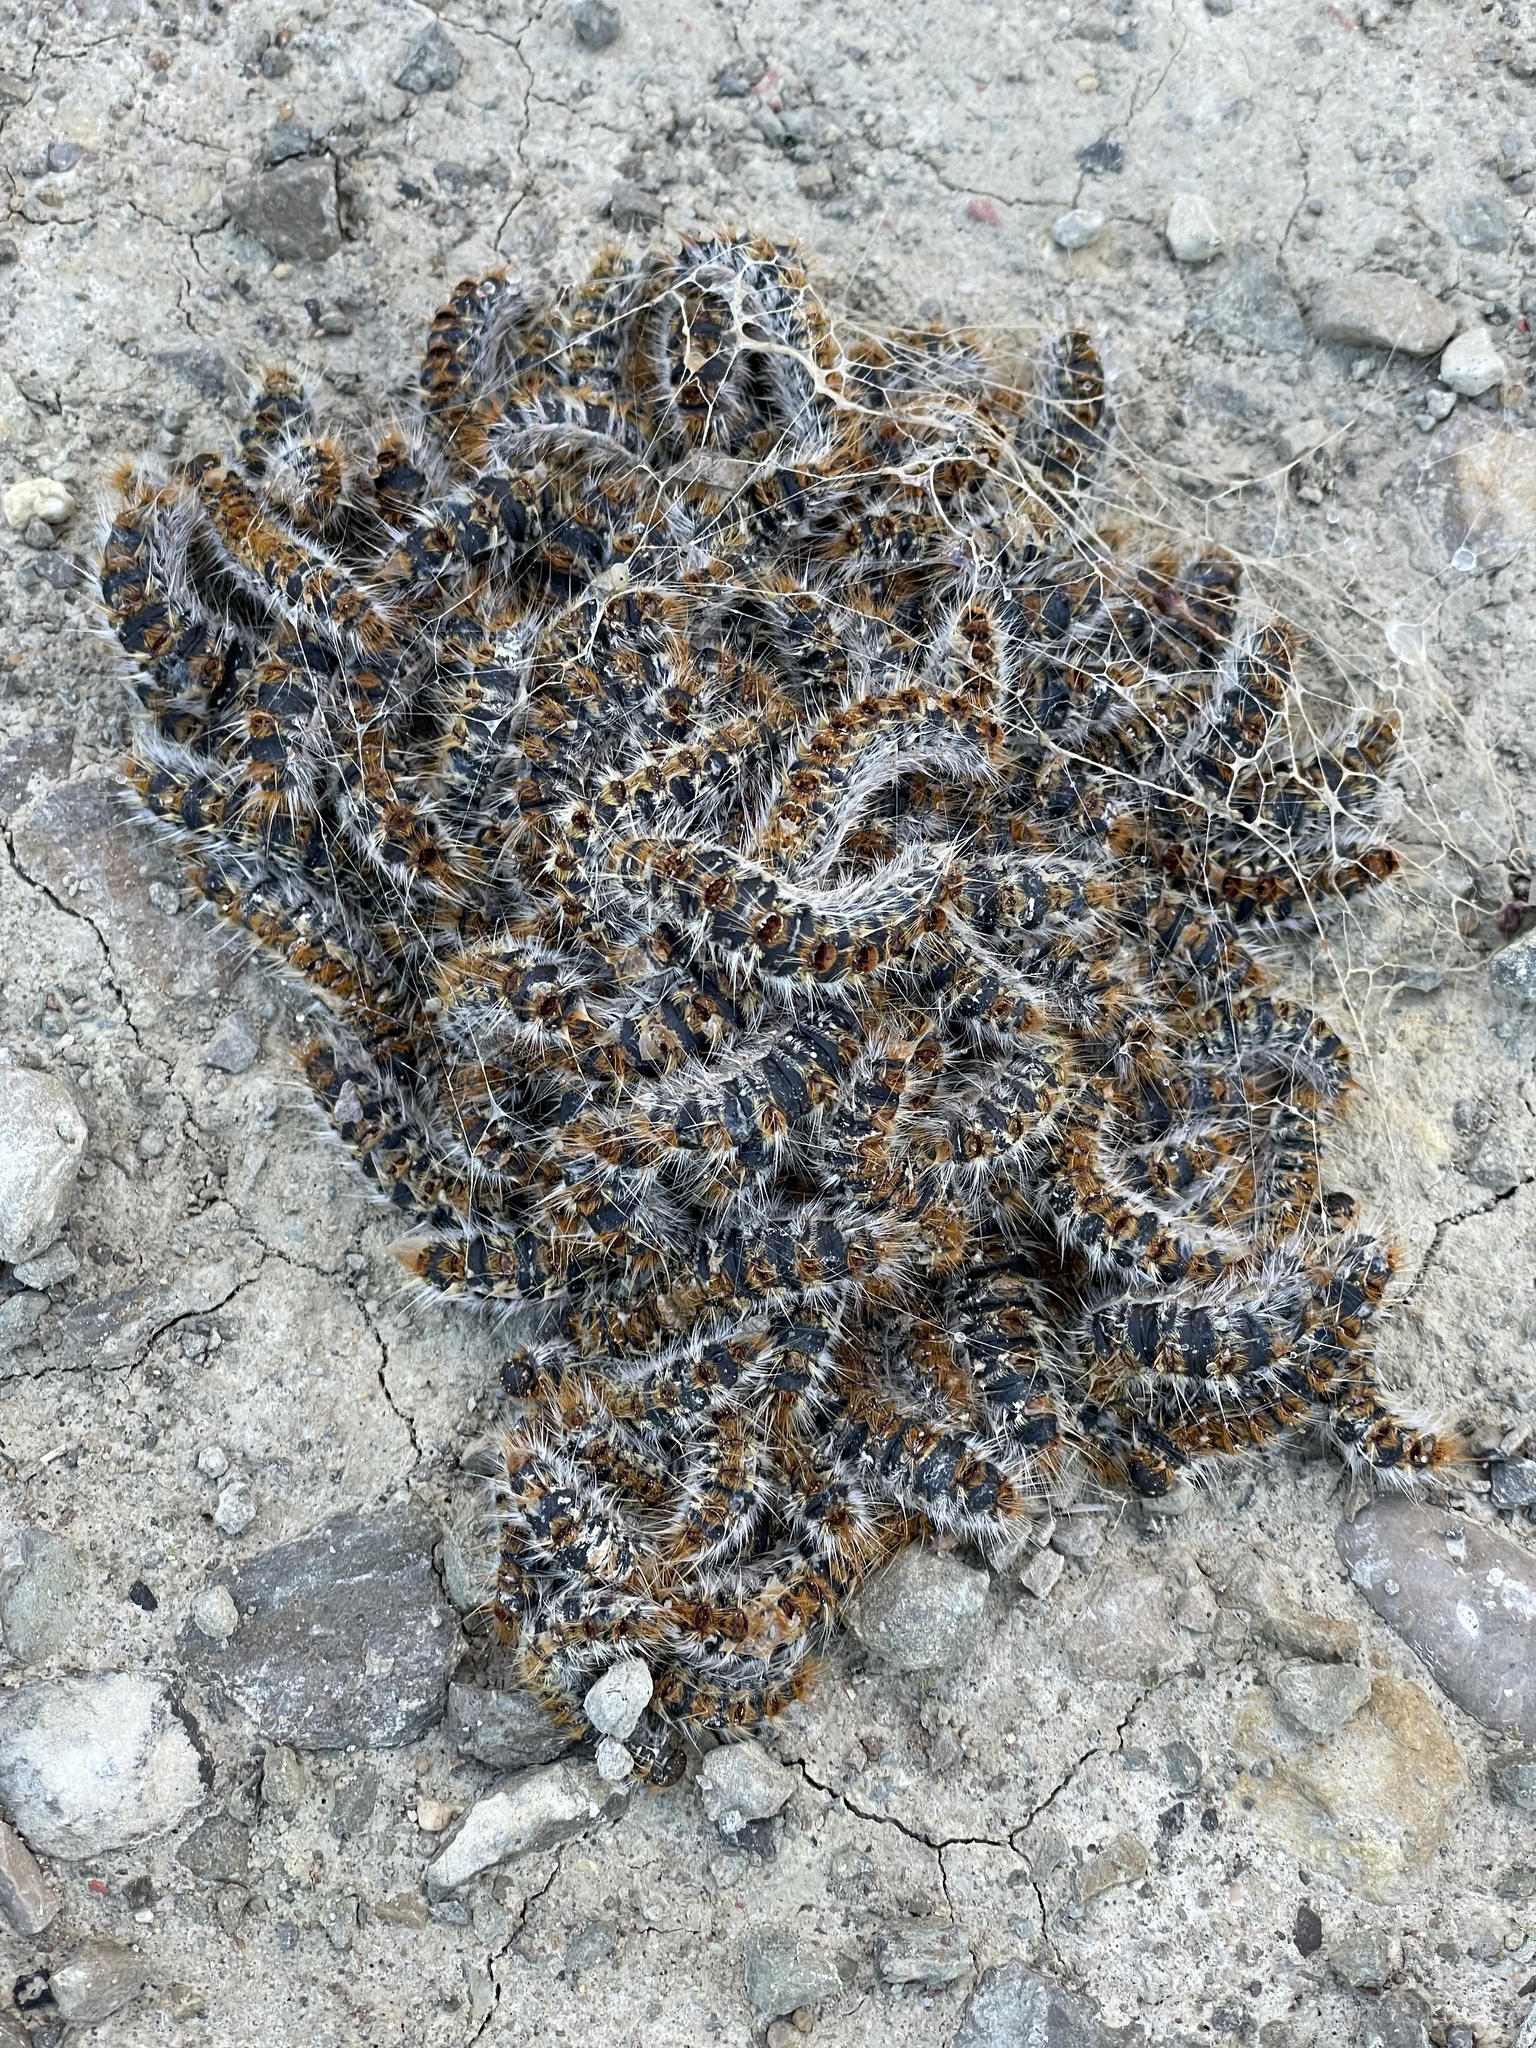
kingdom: Animalia
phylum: Arthropoda
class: Insecta
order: Lepidoptera
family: Notodontidae
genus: Thaumetopoea
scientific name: Thaumetopoea pityocampa
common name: Pine processionary
